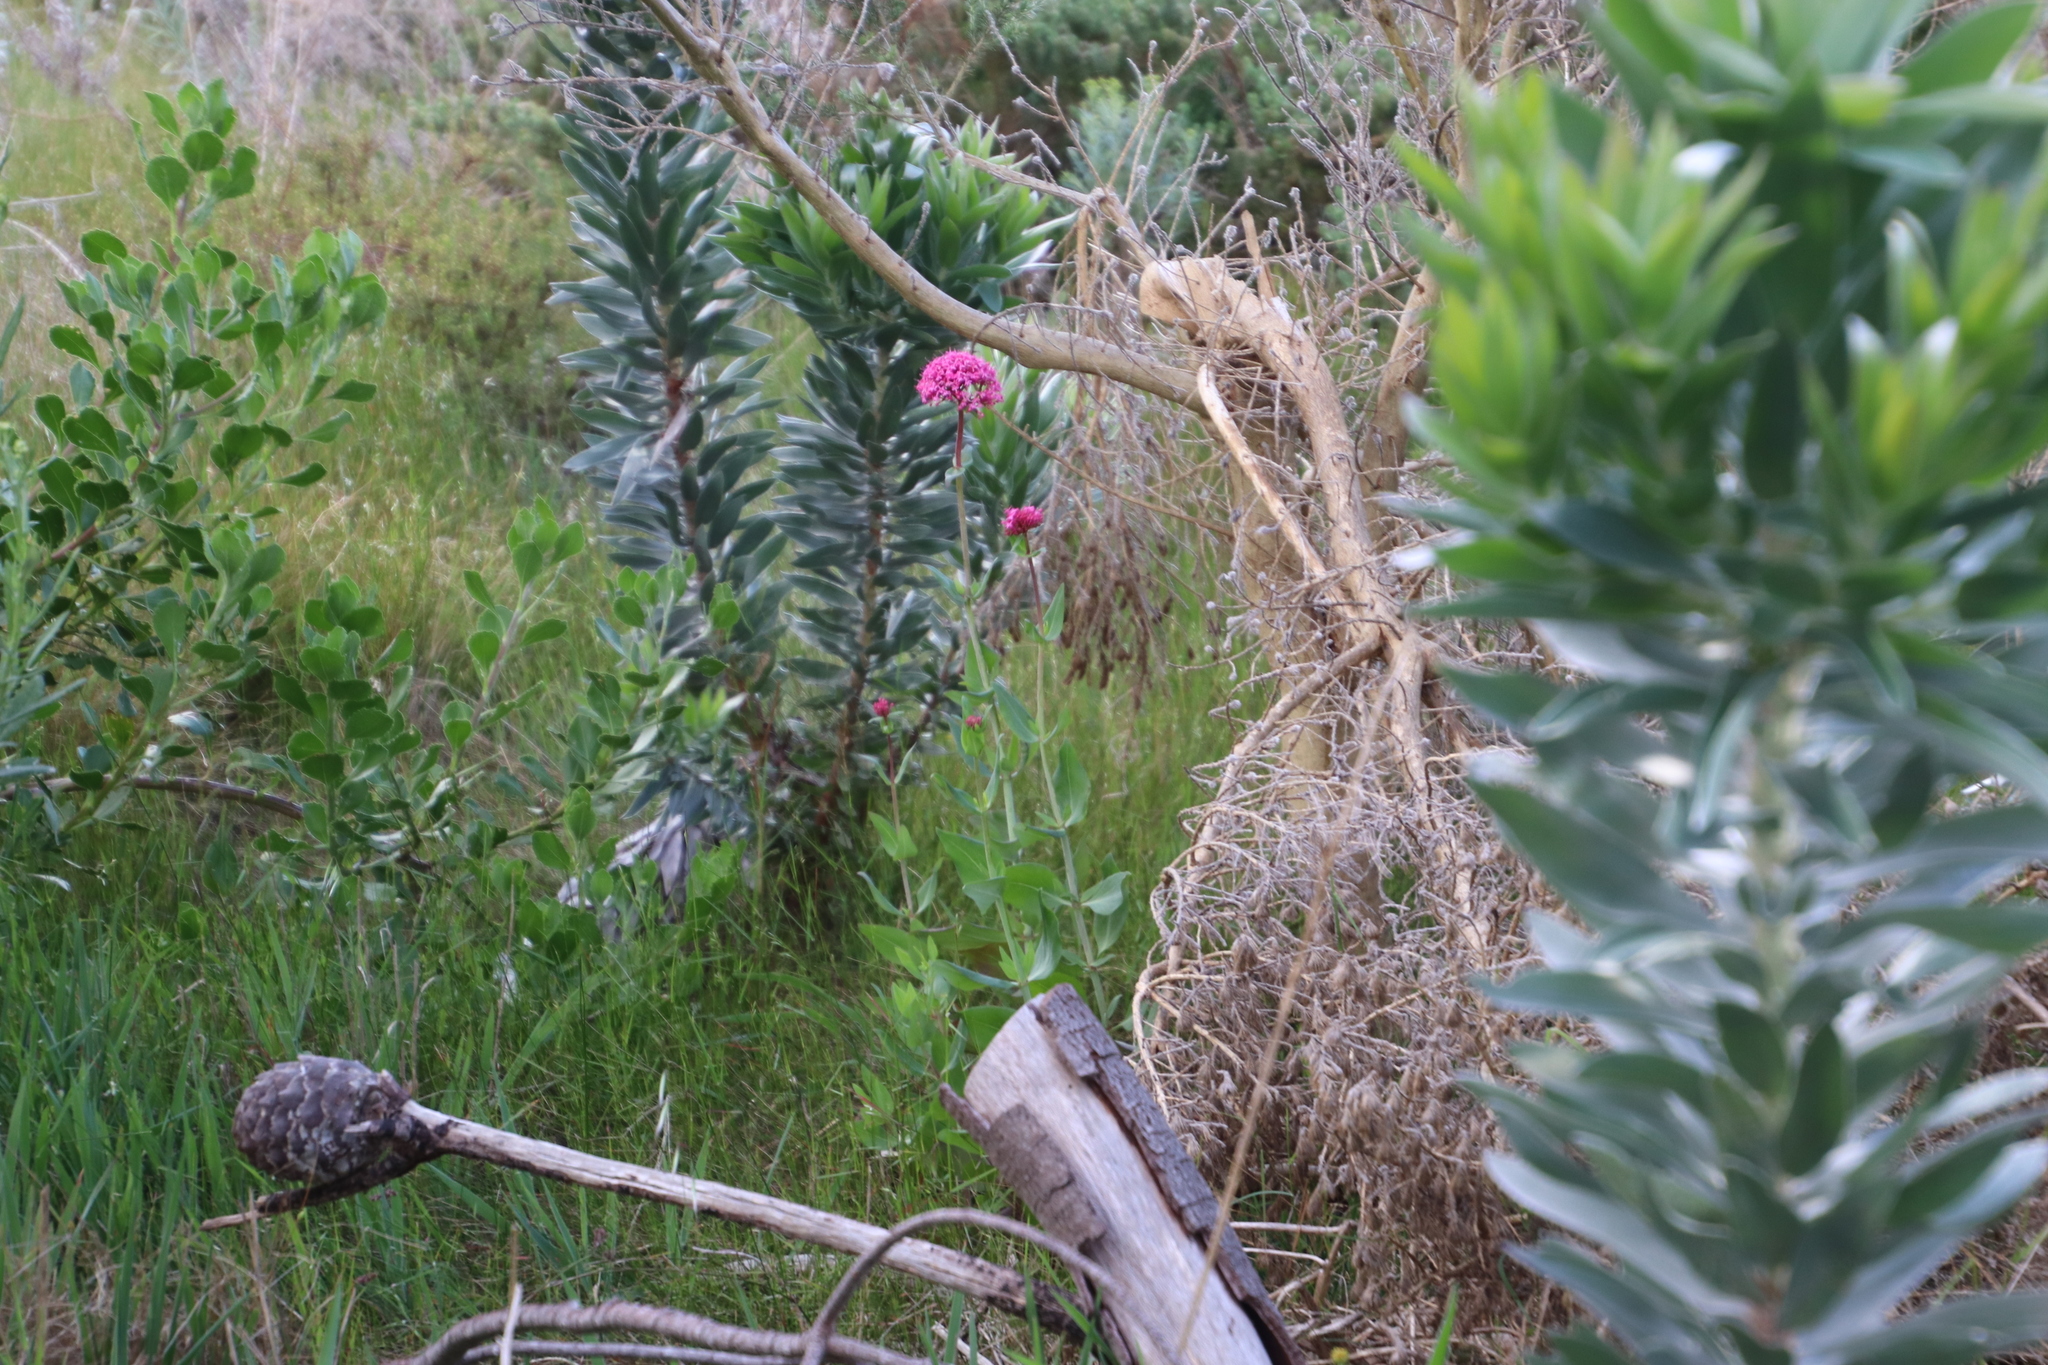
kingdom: Plantae
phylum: Tracheophyta
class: Magnoliopsida
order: Dipsacales
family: Caprifoliaceae
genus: Centranthus
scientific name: Centranthus ruber
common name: Red valerian
